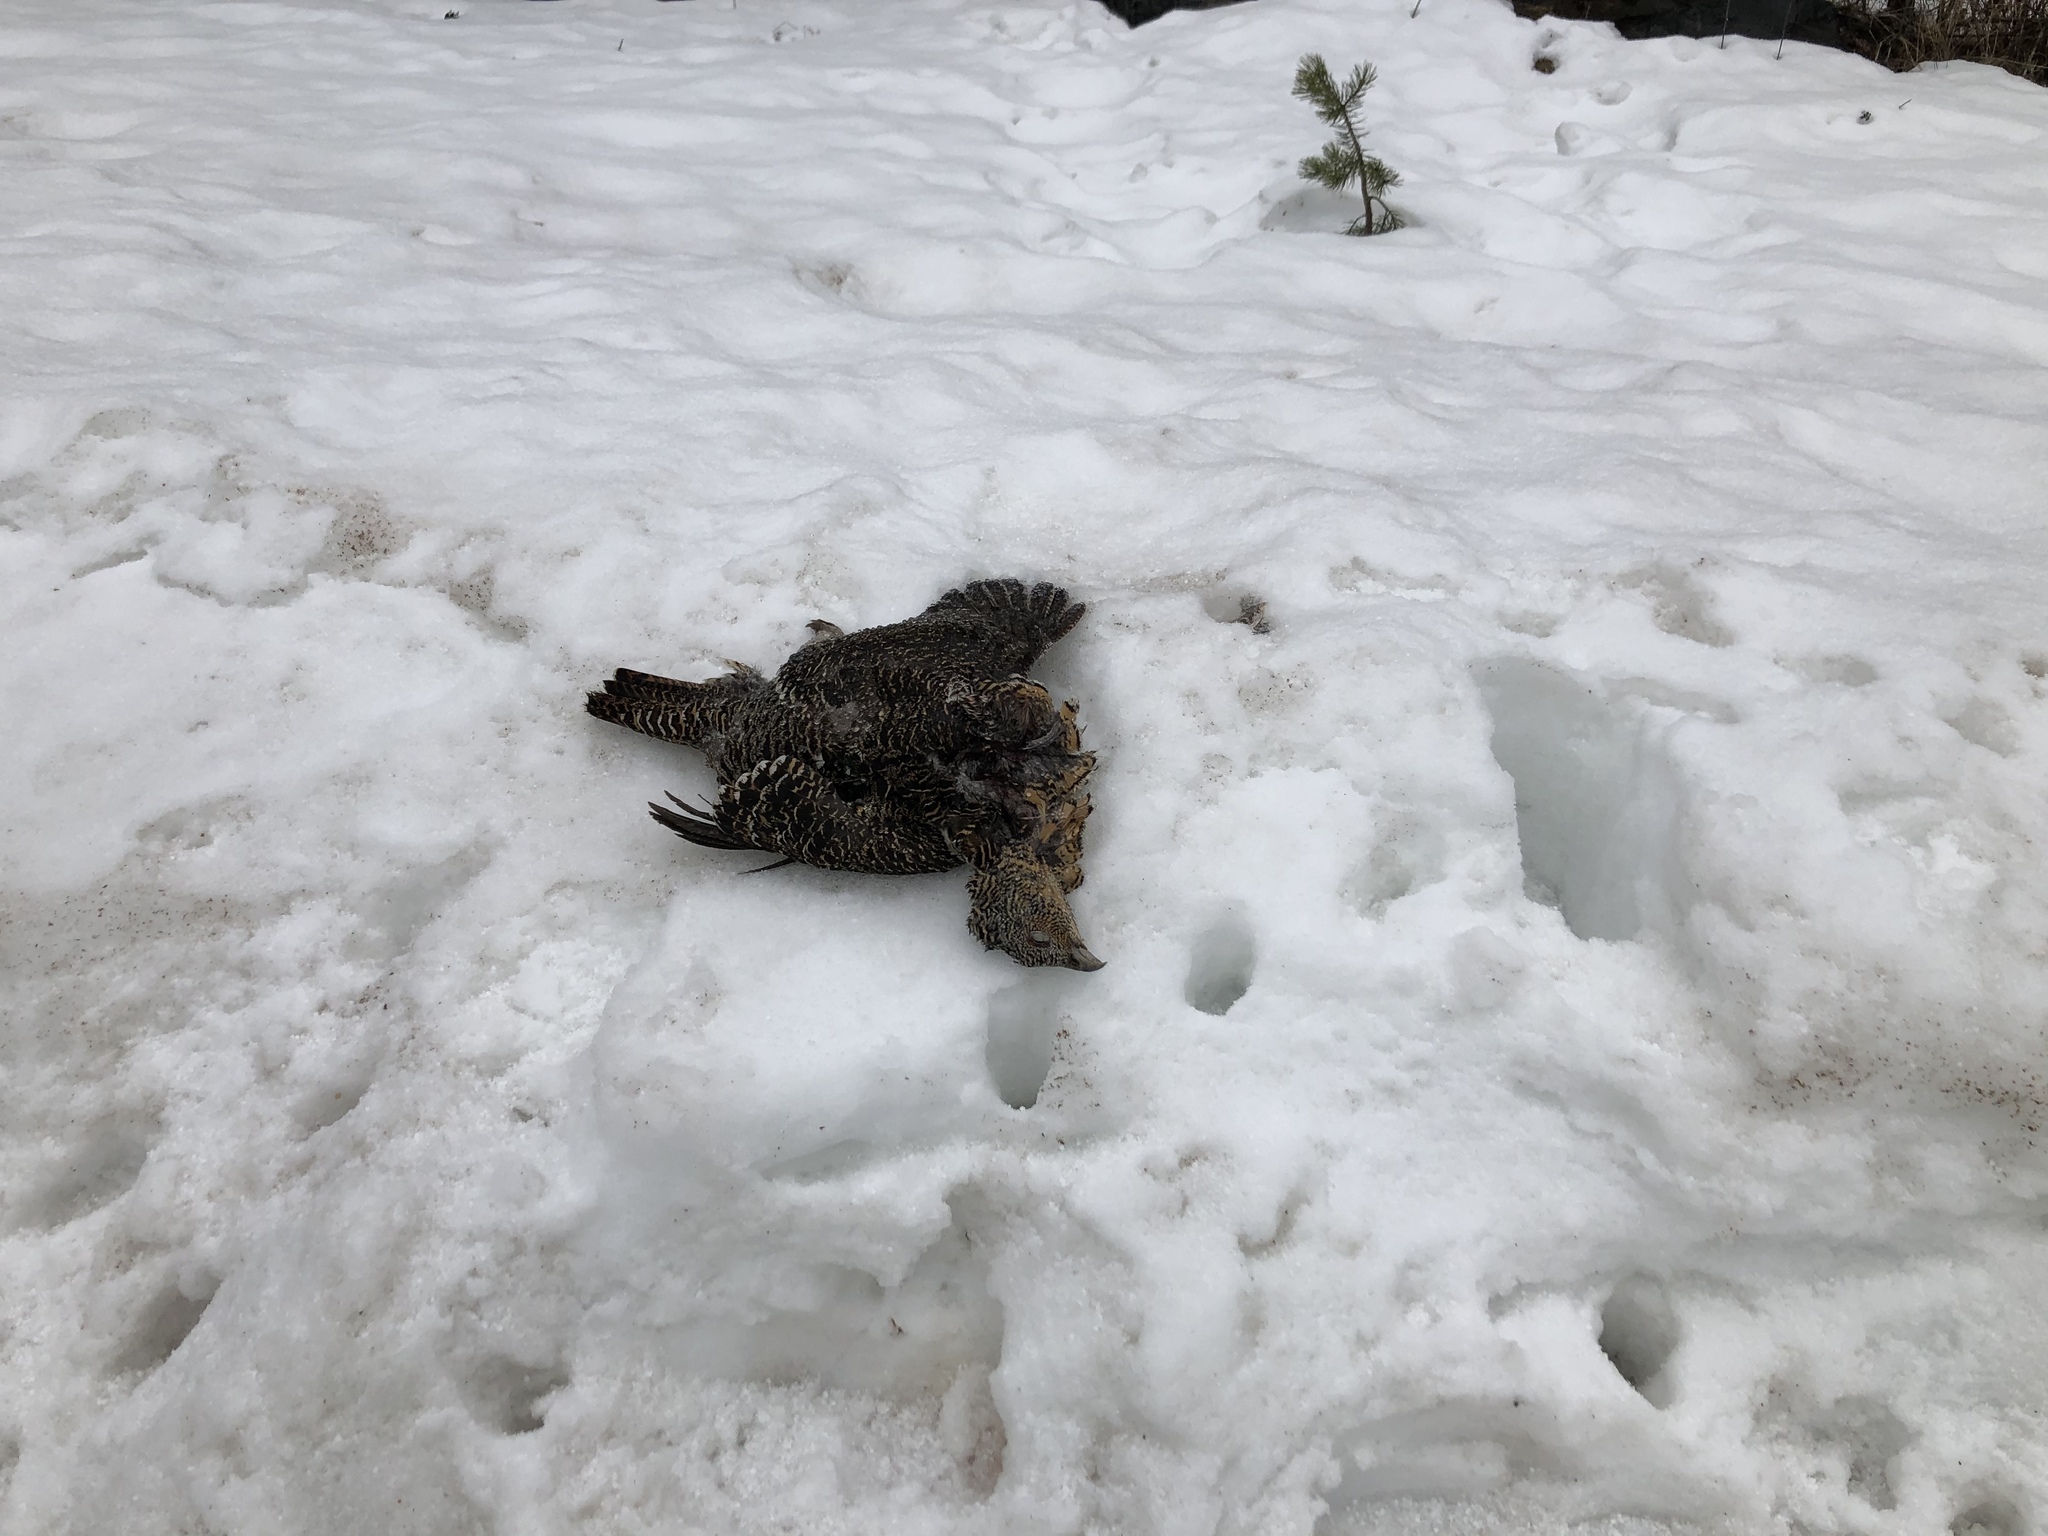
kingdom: Animalia
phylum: Chordata
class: Aves
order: Galliformes
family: Phasianidae
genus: Tetrao
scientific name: Tetrao urogallus
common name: Western capercaillie
